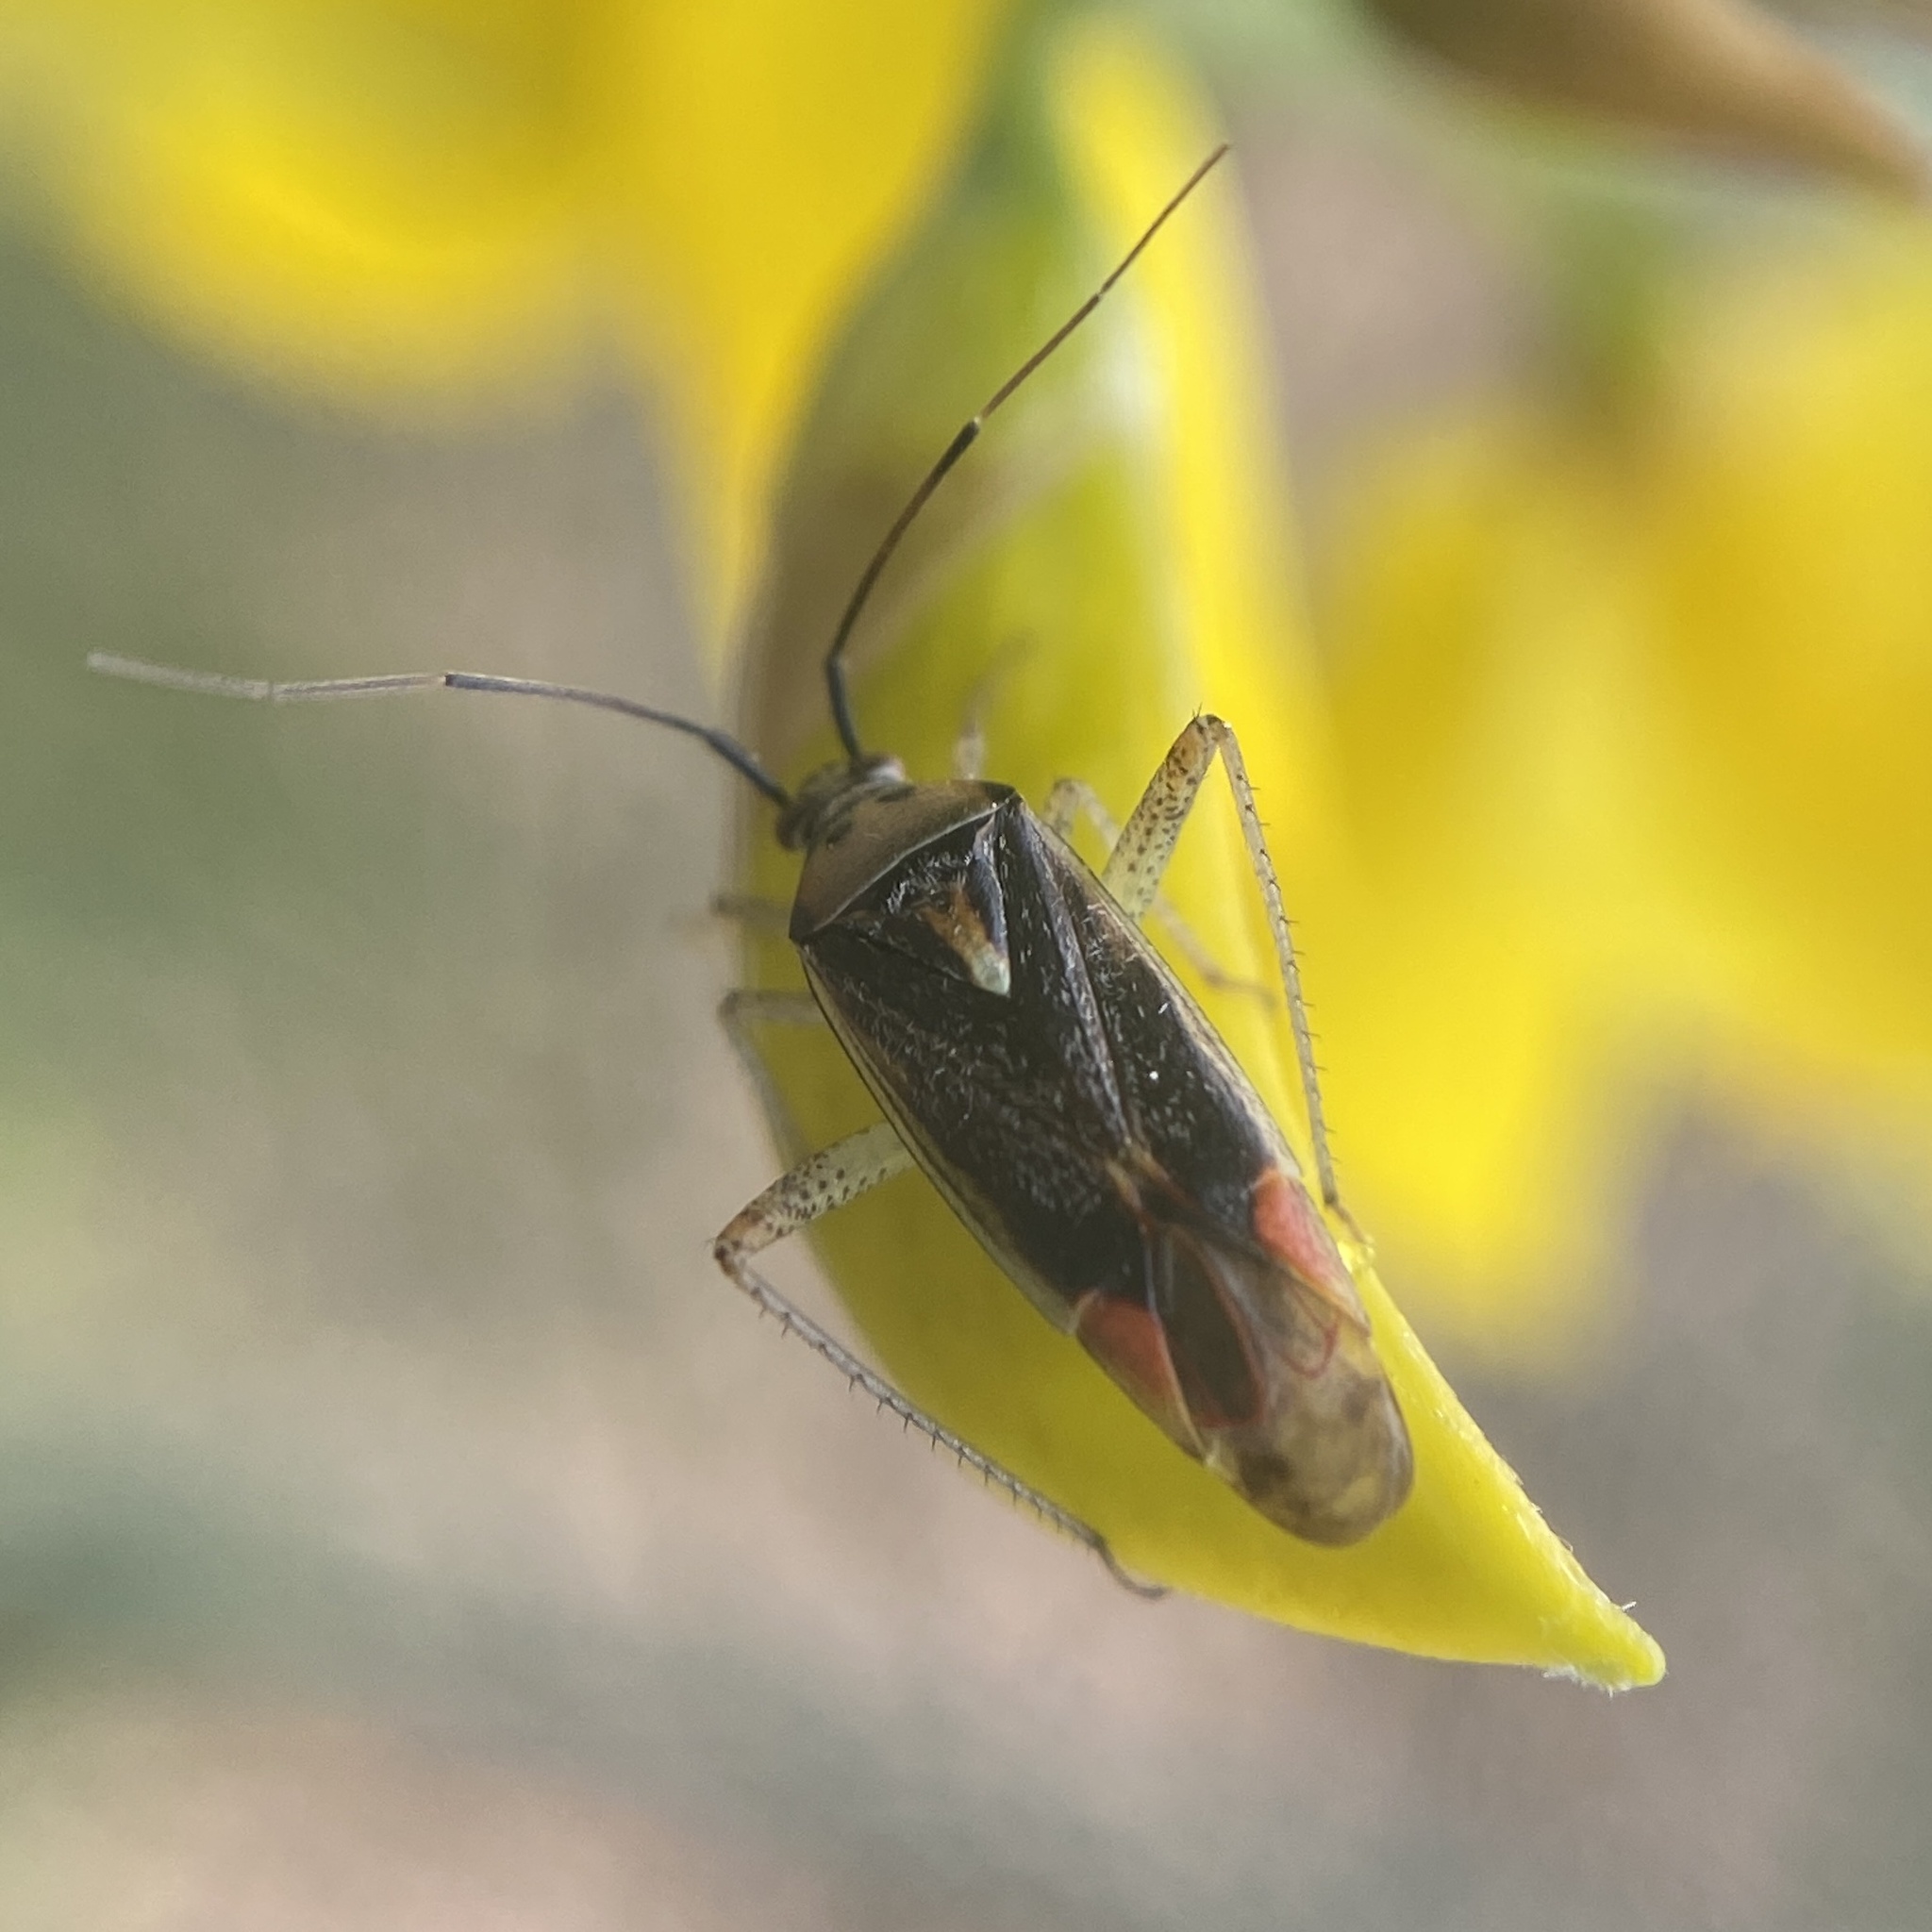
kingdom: Animalia
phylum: Arthropoda
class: Insecta
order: Hemiptera
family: Miridae
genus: Closterotomus
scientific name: Closterotomus trivialis
